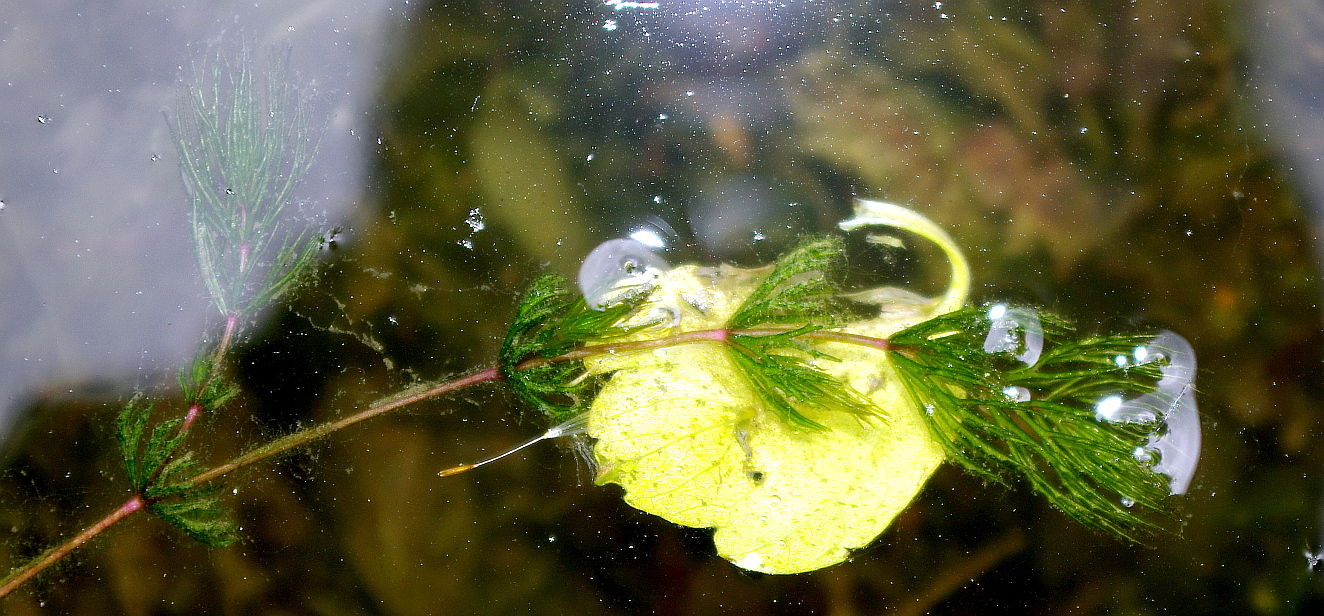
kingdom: Plantae
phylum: Tracheophyta
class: Magnoliopsida
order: Ceratophyllales
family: Ceratophyllaceae
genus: Ceratophyllum
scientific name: Ceratophyllum demersum
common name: Rigid hornwort
